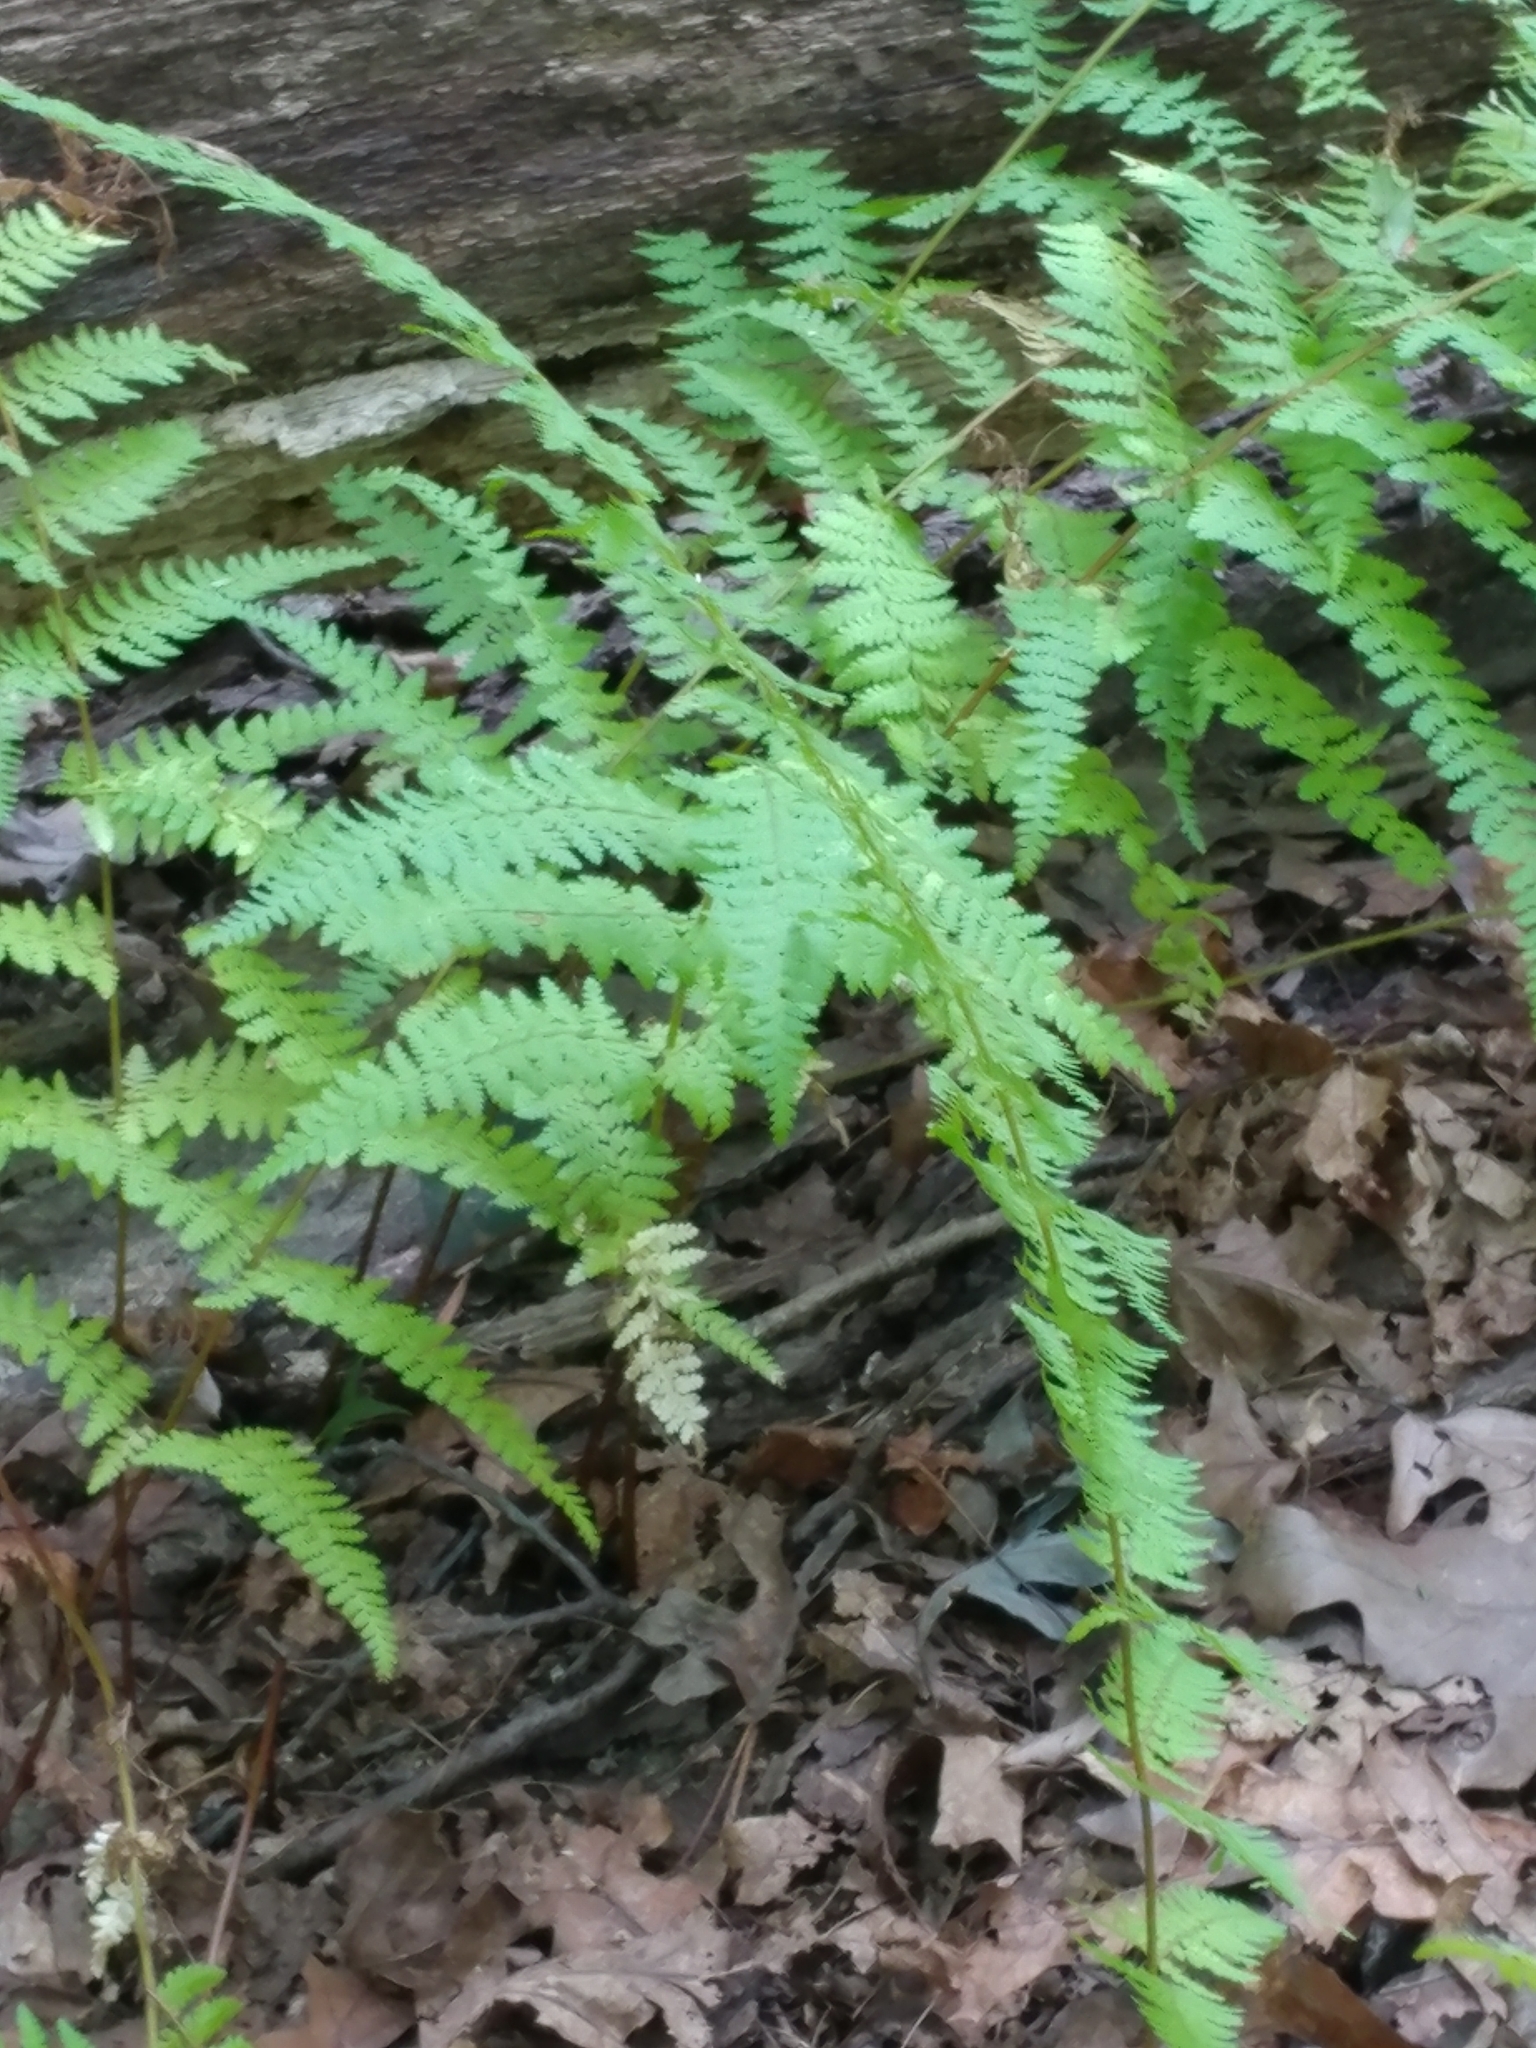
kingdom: Plantae
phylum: Tracheophyta
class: Polypodiopsida
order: Polypodiales
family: Dennstaedtiaceae
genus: Sitobolium
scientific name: Sitobolium punctilobum
